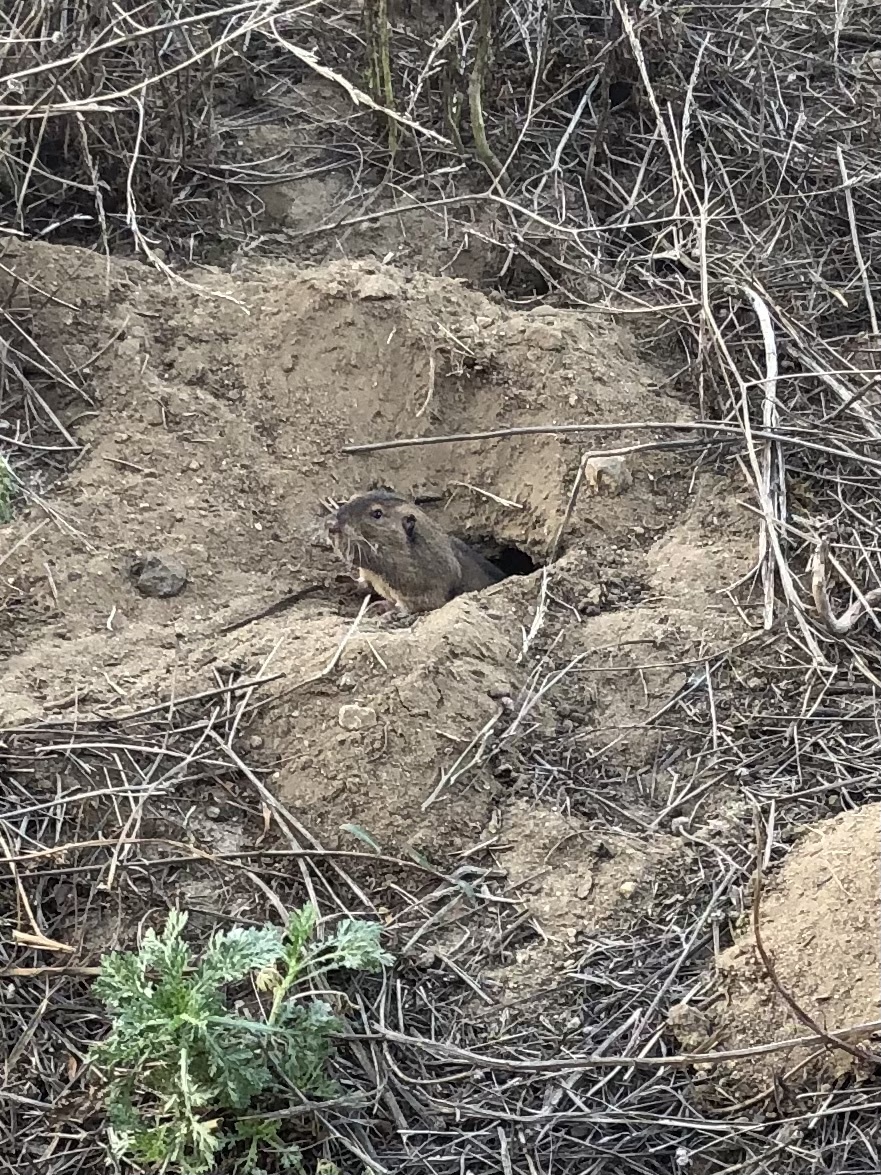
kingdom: Animalia
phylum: Chordata
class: Mammalia
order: Rodentia
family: Geomyidae
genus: Thomomys
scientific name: Thomomys bottae
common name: Botta's pocket gopher
